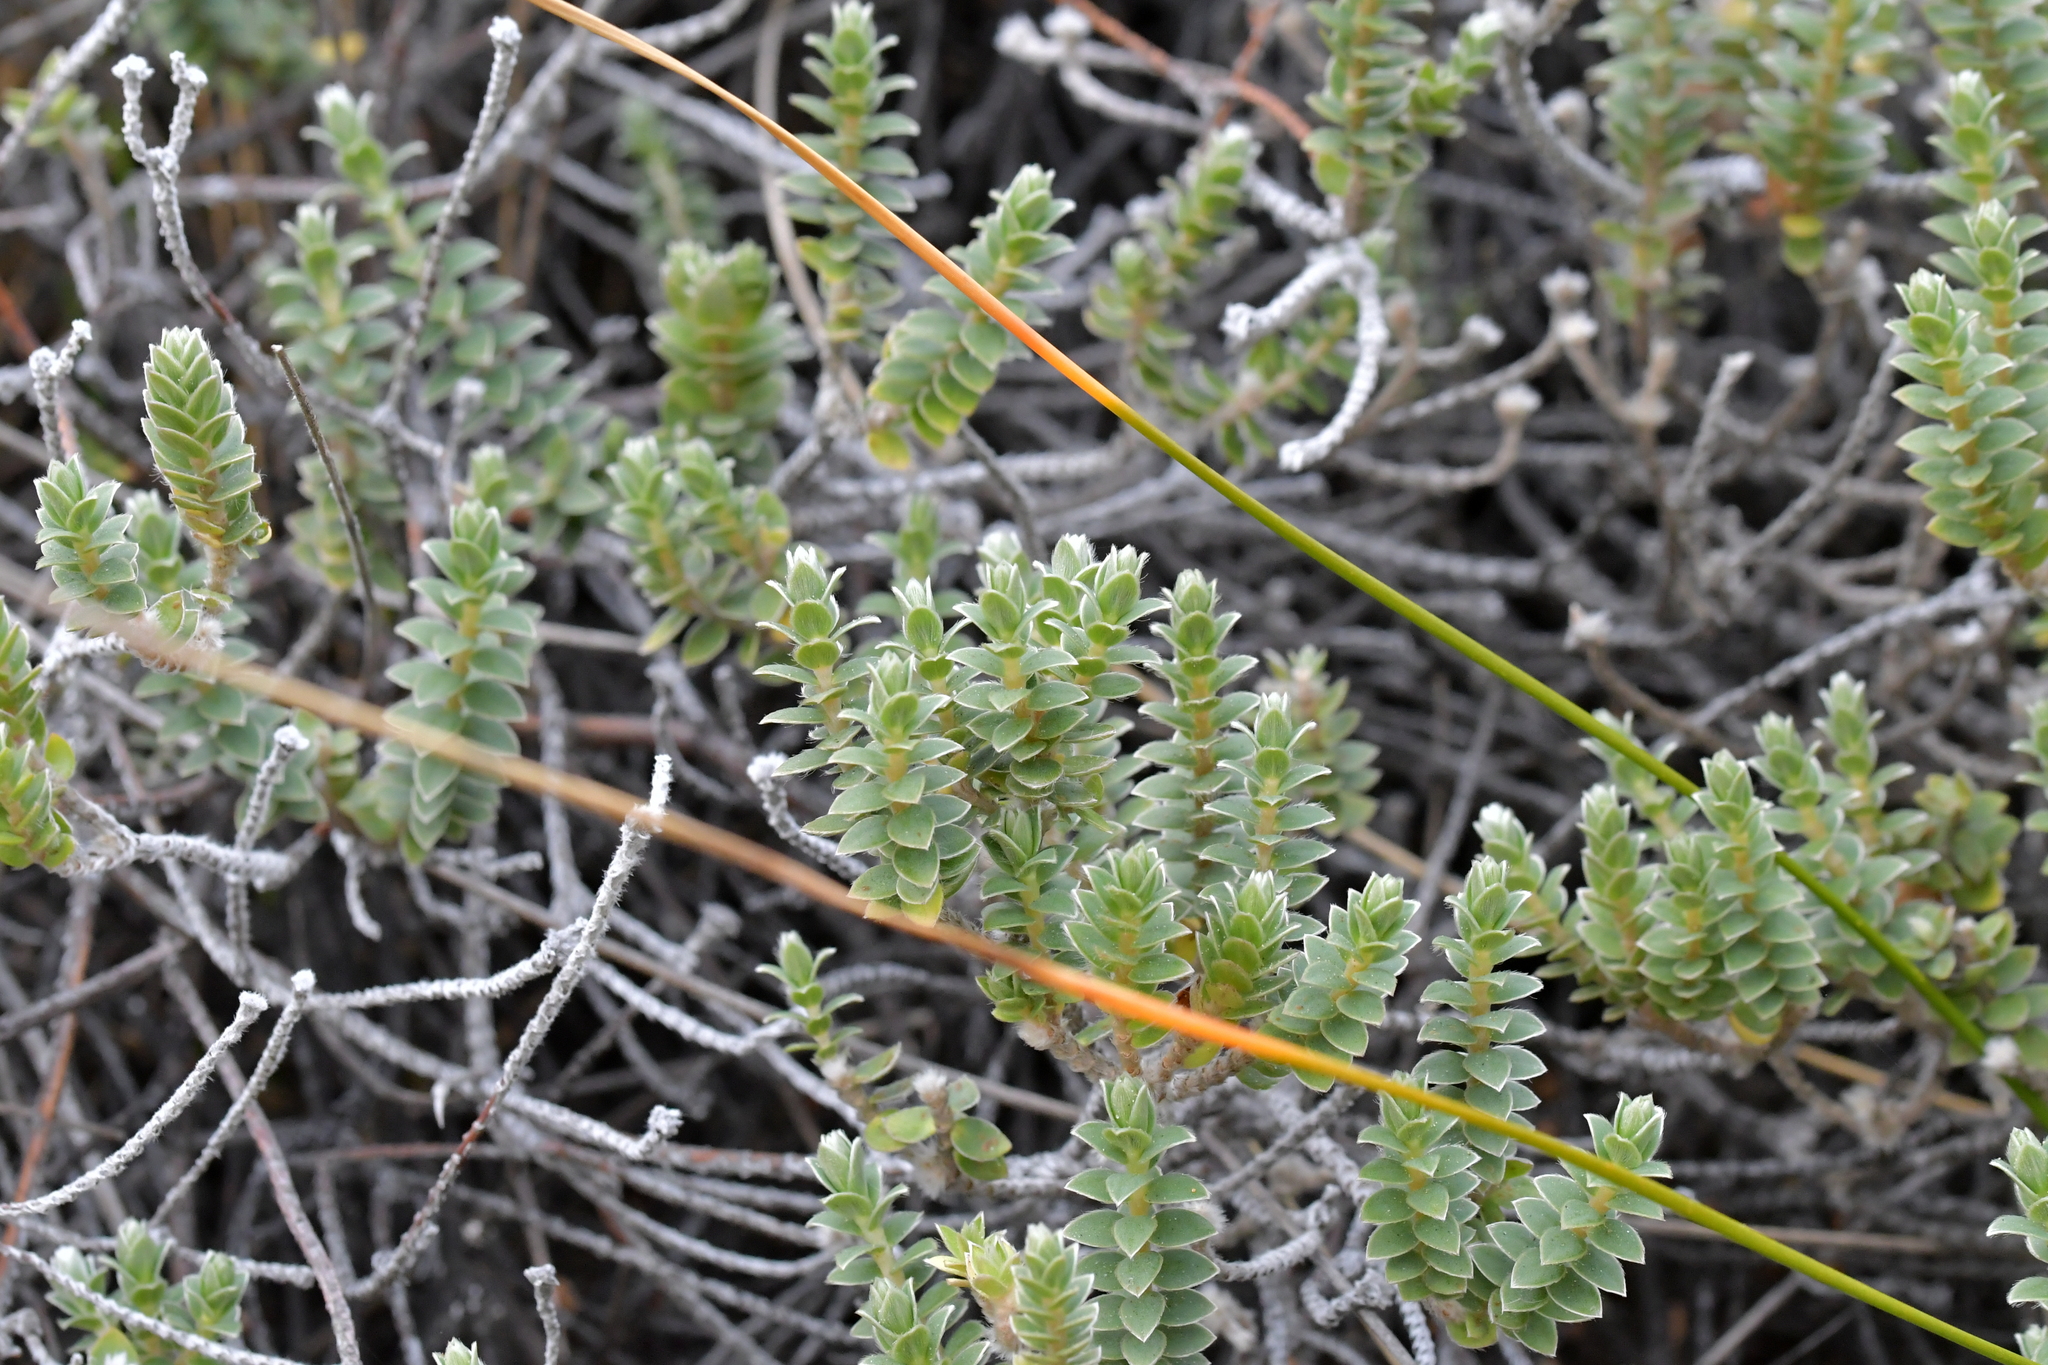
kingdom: Plantae
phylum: Tracheophyta
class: Magnoliopsida
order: Malvales
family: Thymelaeaceae
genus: Pimelea
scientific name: Pimelea villosa
